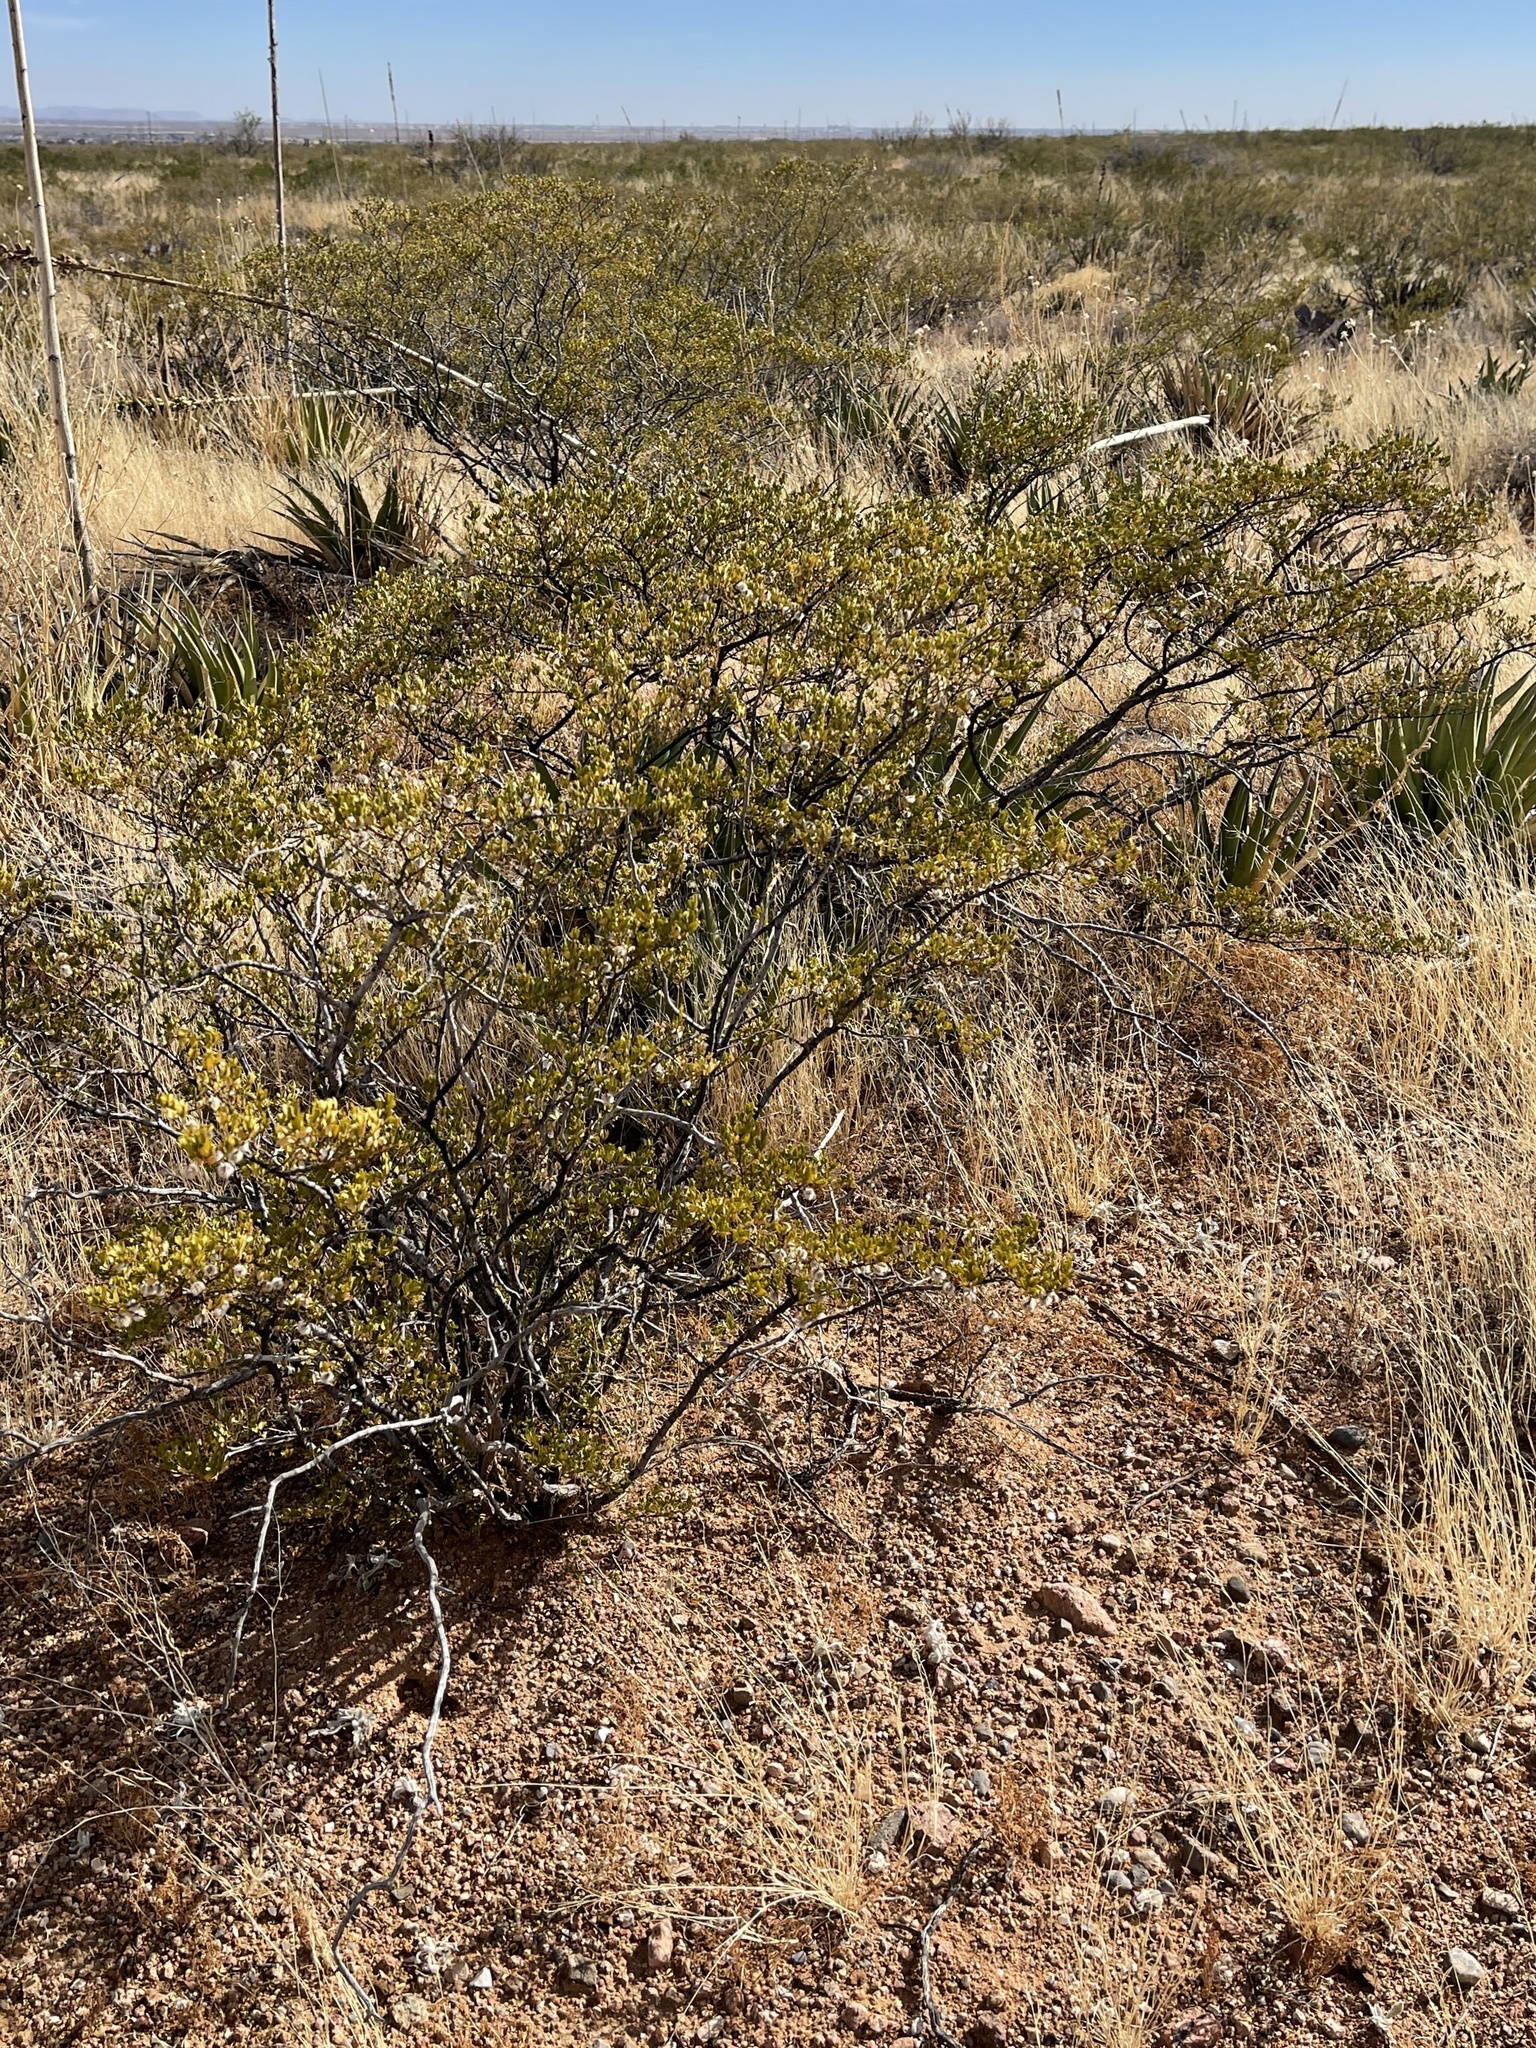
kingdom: Plantae
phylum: Tracheophyta
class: Magnoliopsida
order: Zygophyllales
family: Zygophyllaceae
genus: Larrea
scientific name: Larrea tridentata
